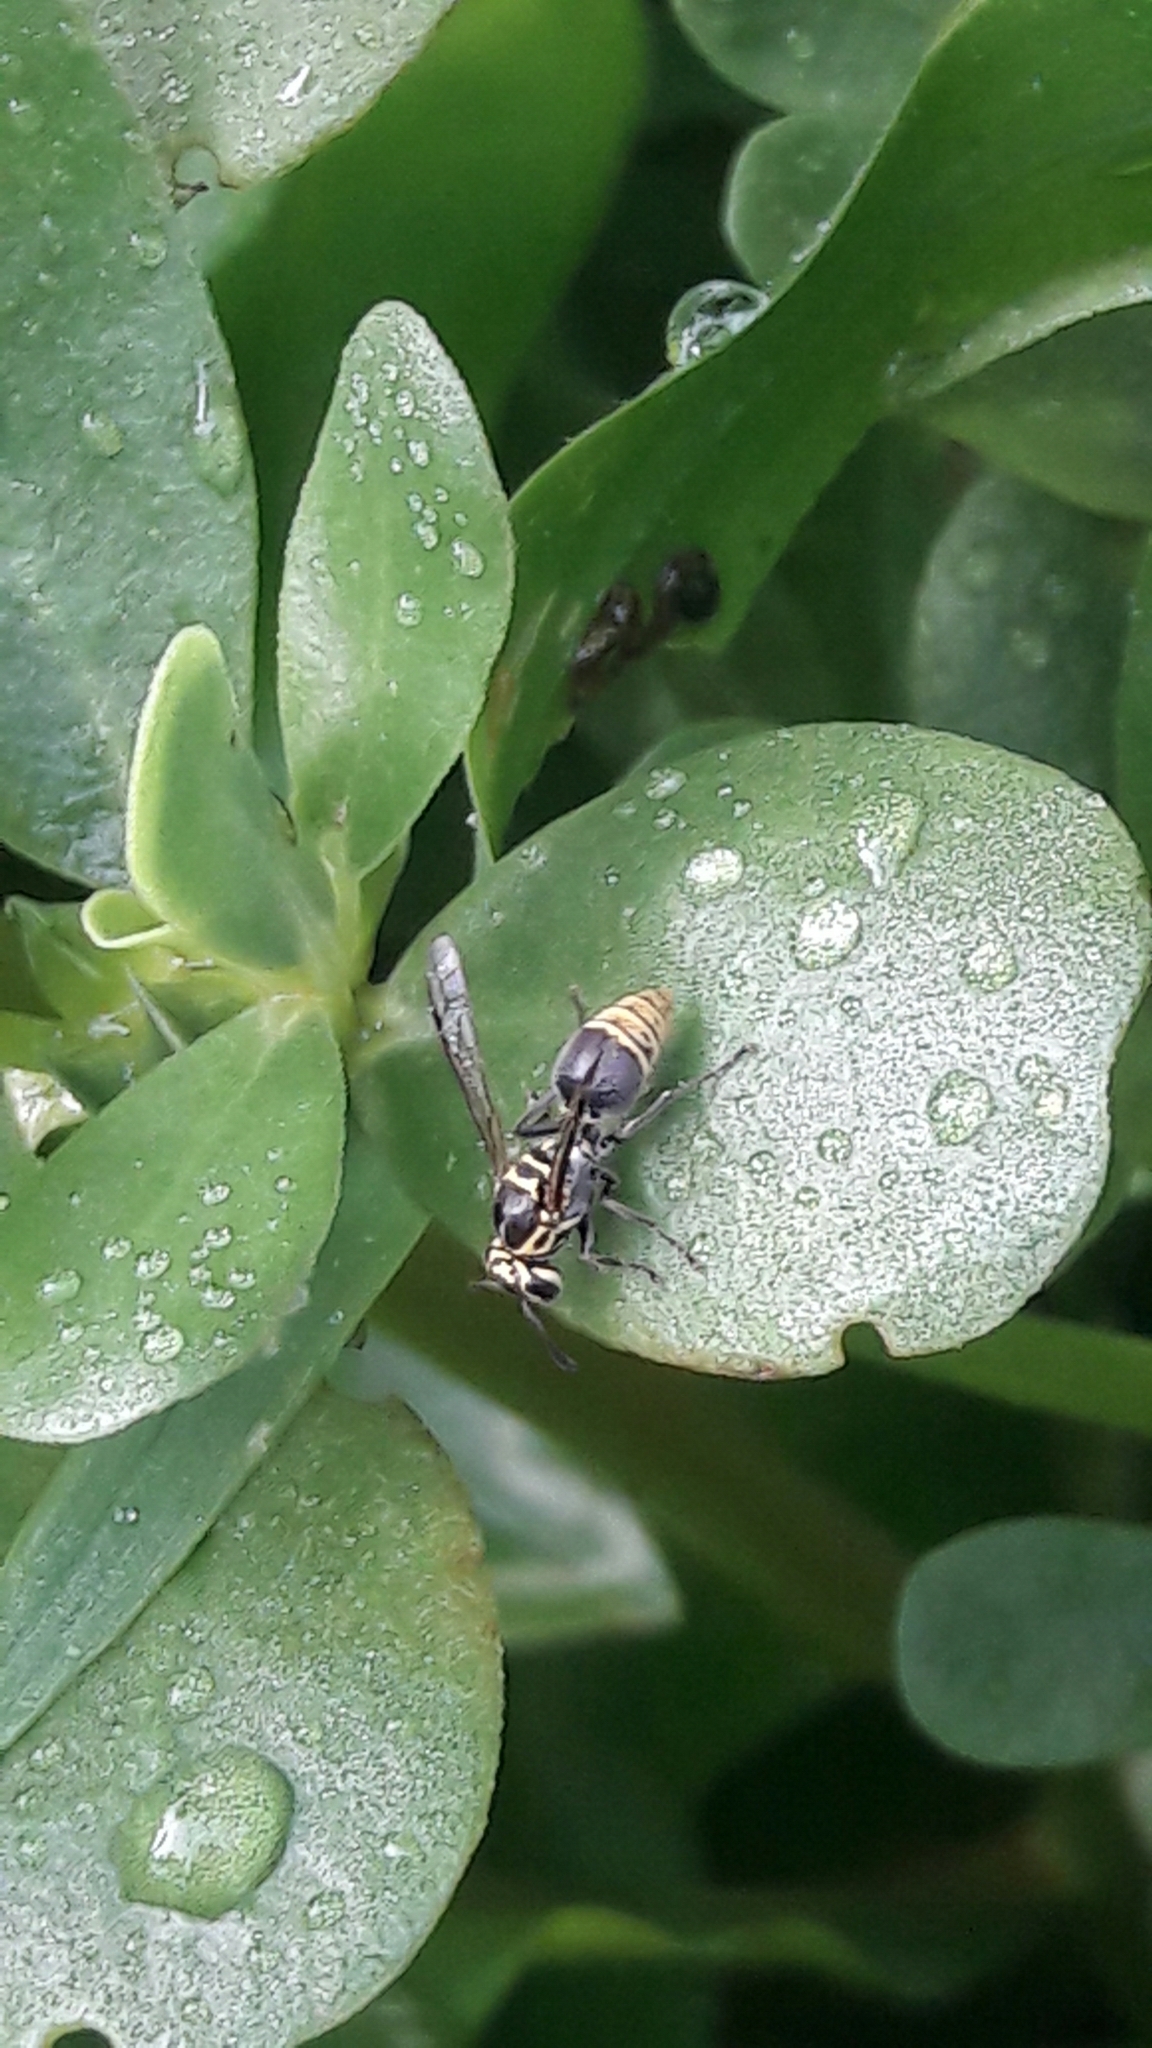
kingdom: Animalia
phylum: Arthropoda
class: Insecta
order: Hymenoptera
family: Vespidae
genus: Protonectarina
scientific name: Protonectarina sylveirae
